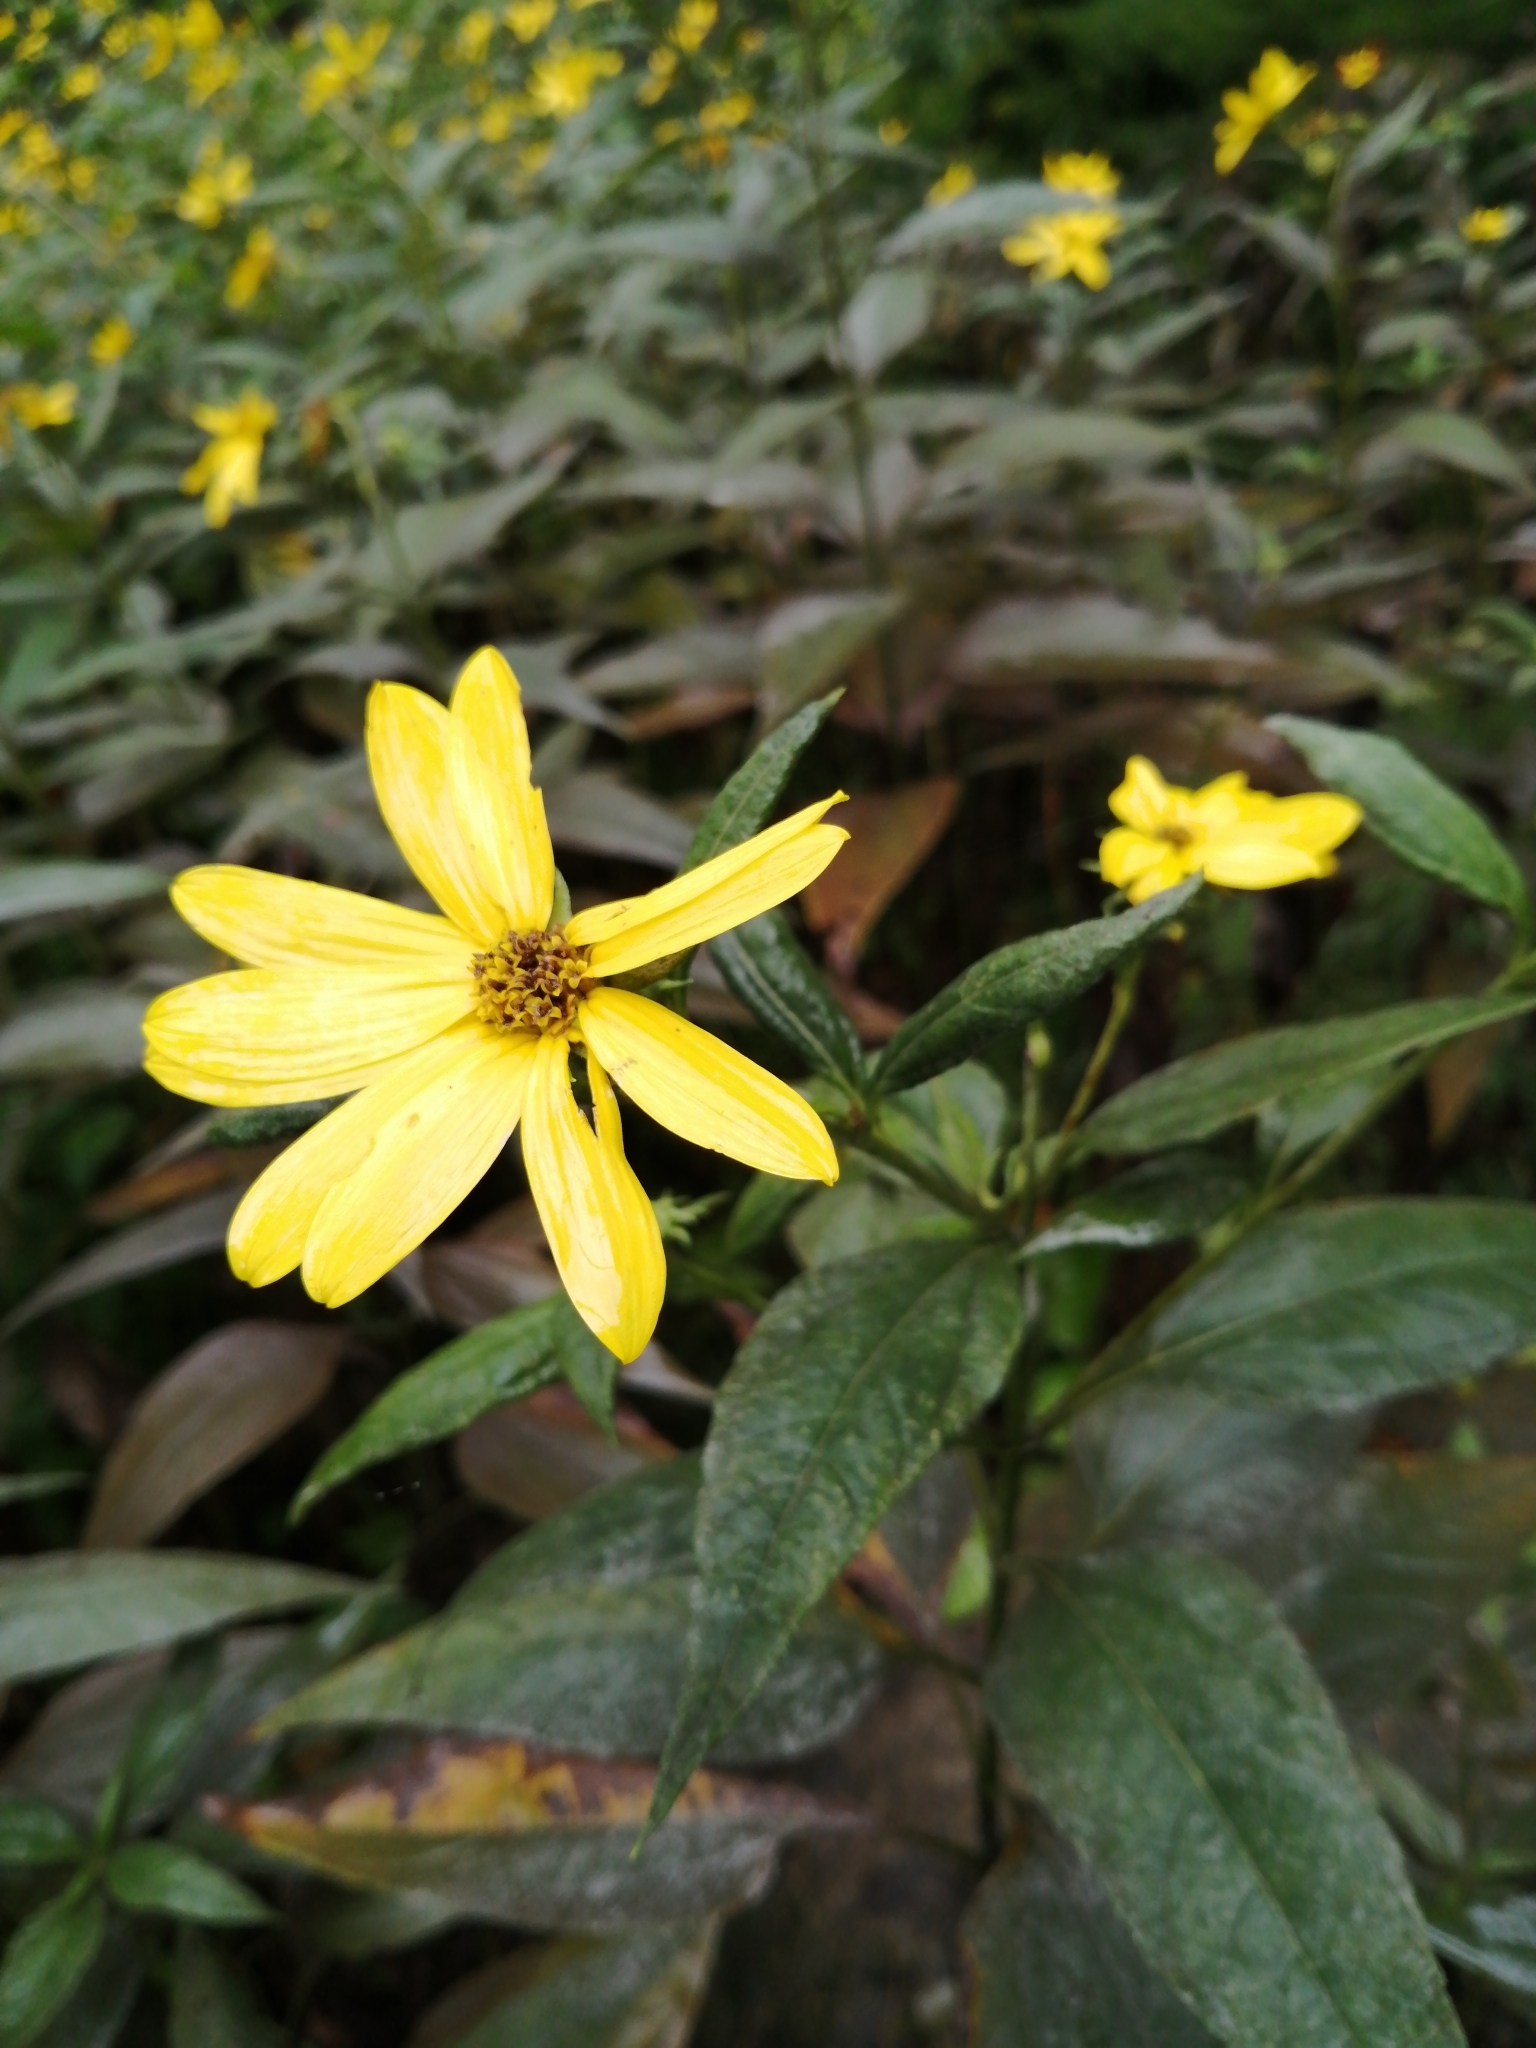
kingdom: Plantae
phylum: Tracheophyta
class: Magnoliopsida
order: Asterales
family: Asteraceae
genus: Helianthus
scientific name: Helianthus strumosus
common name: Pale-leaved sunflower
